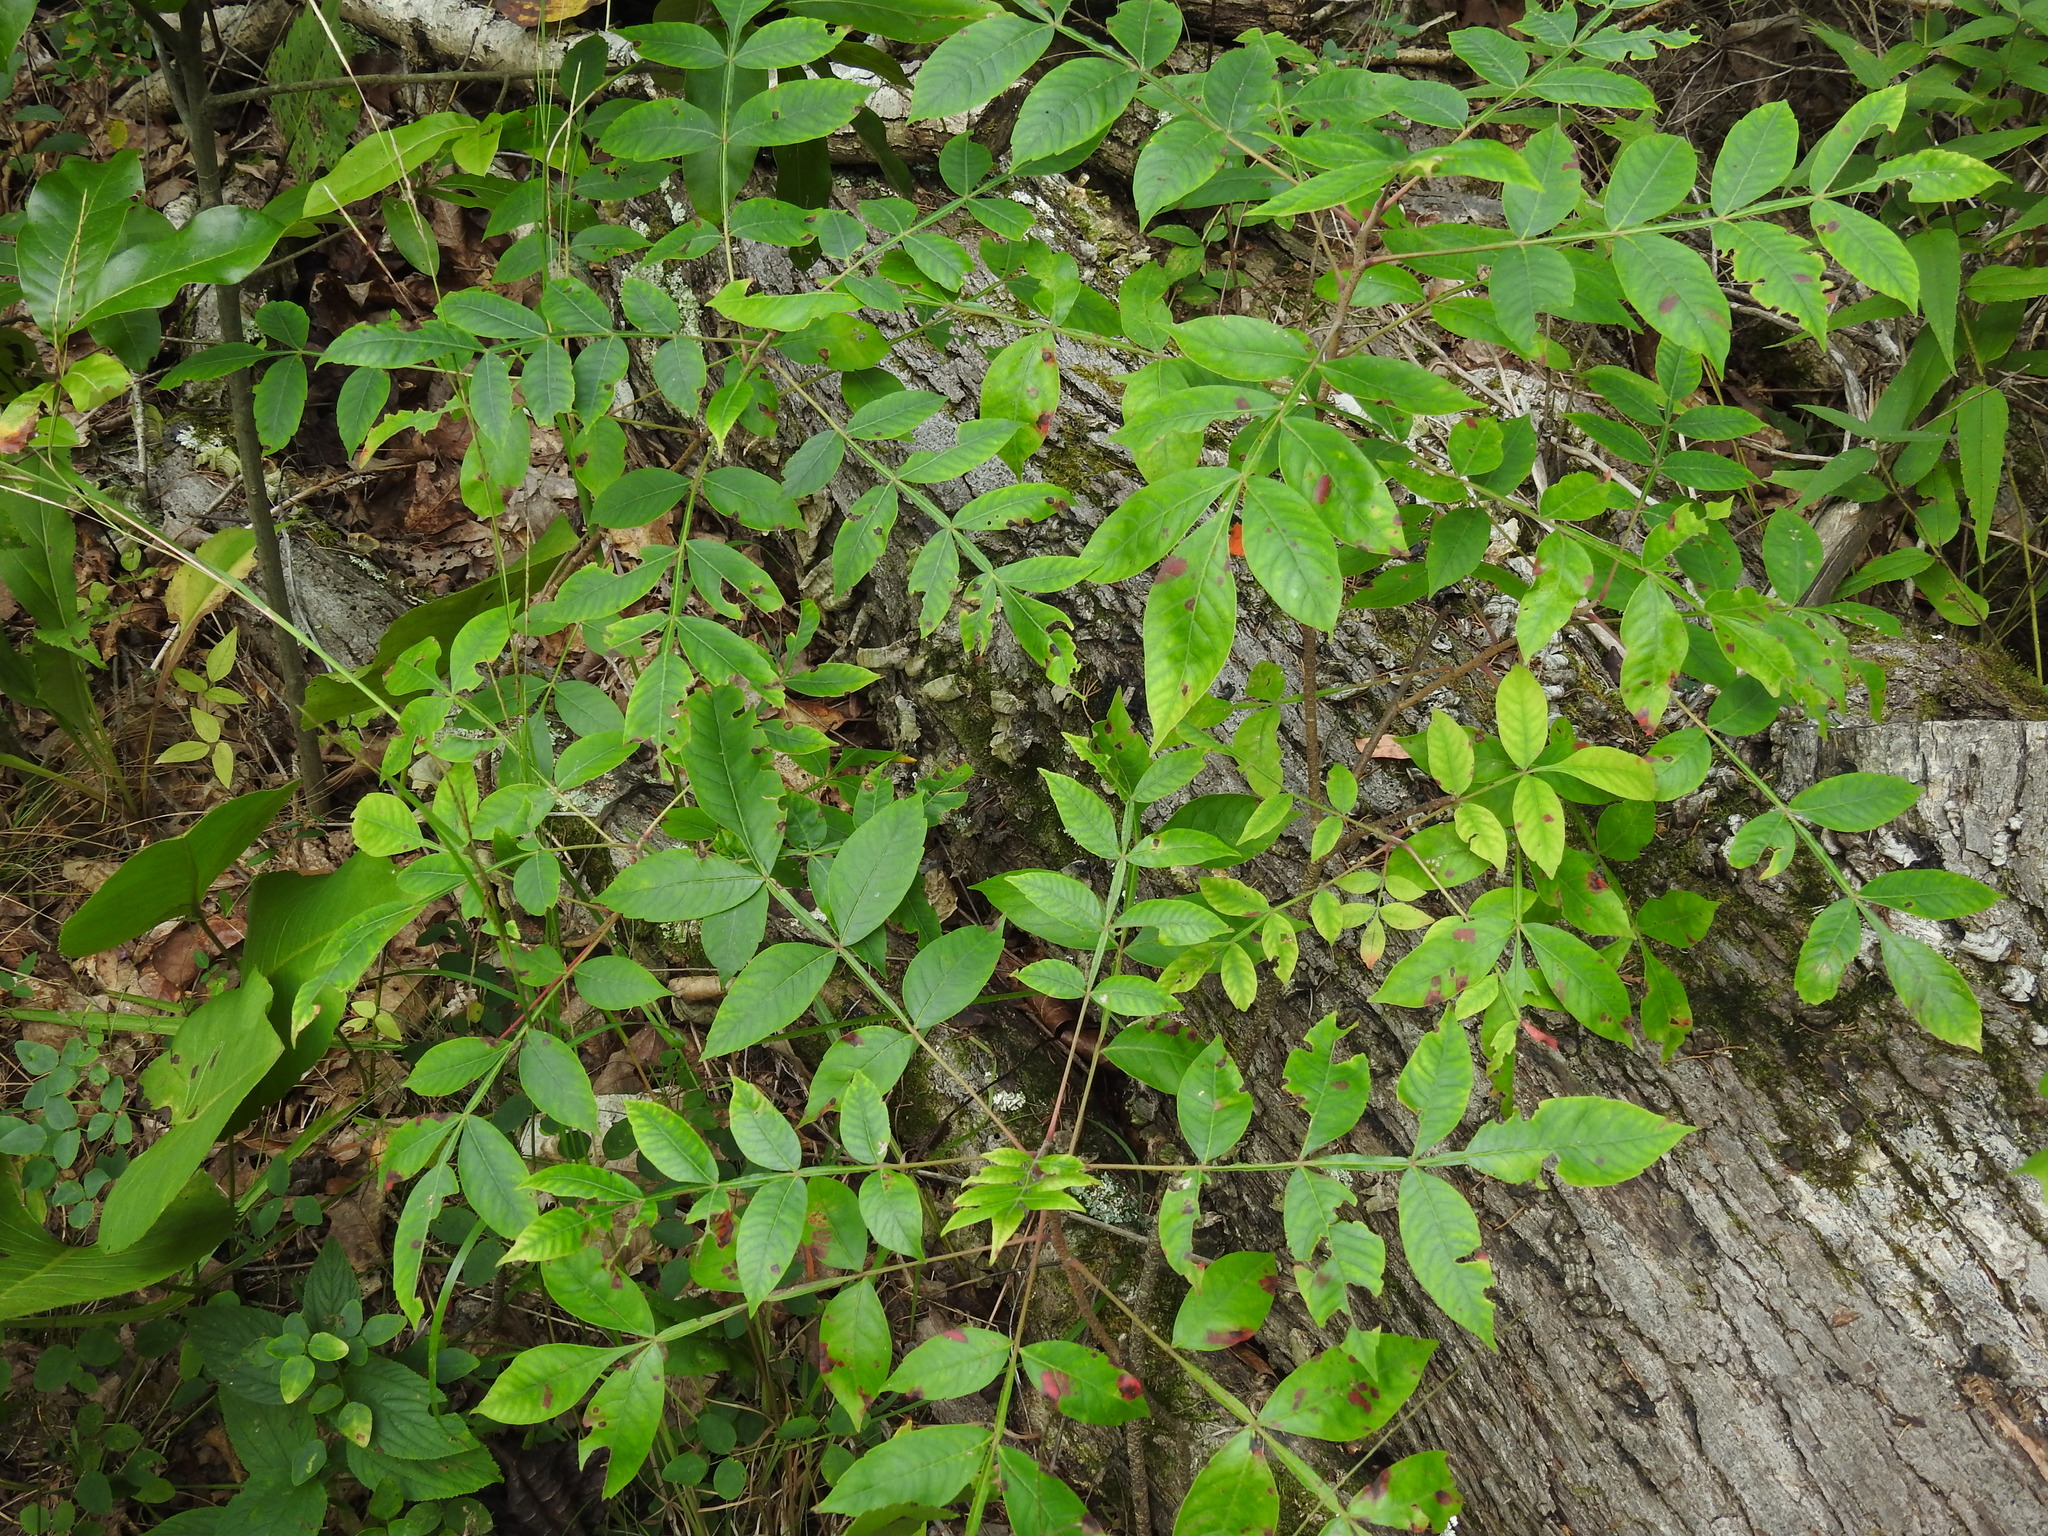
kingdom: Plantae
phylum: Tracheophyta
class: Magnoliopsida
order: Sapindales
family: Anacardiaceae
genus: Rhus
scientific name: Rhus copallina
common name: Shining sumac
